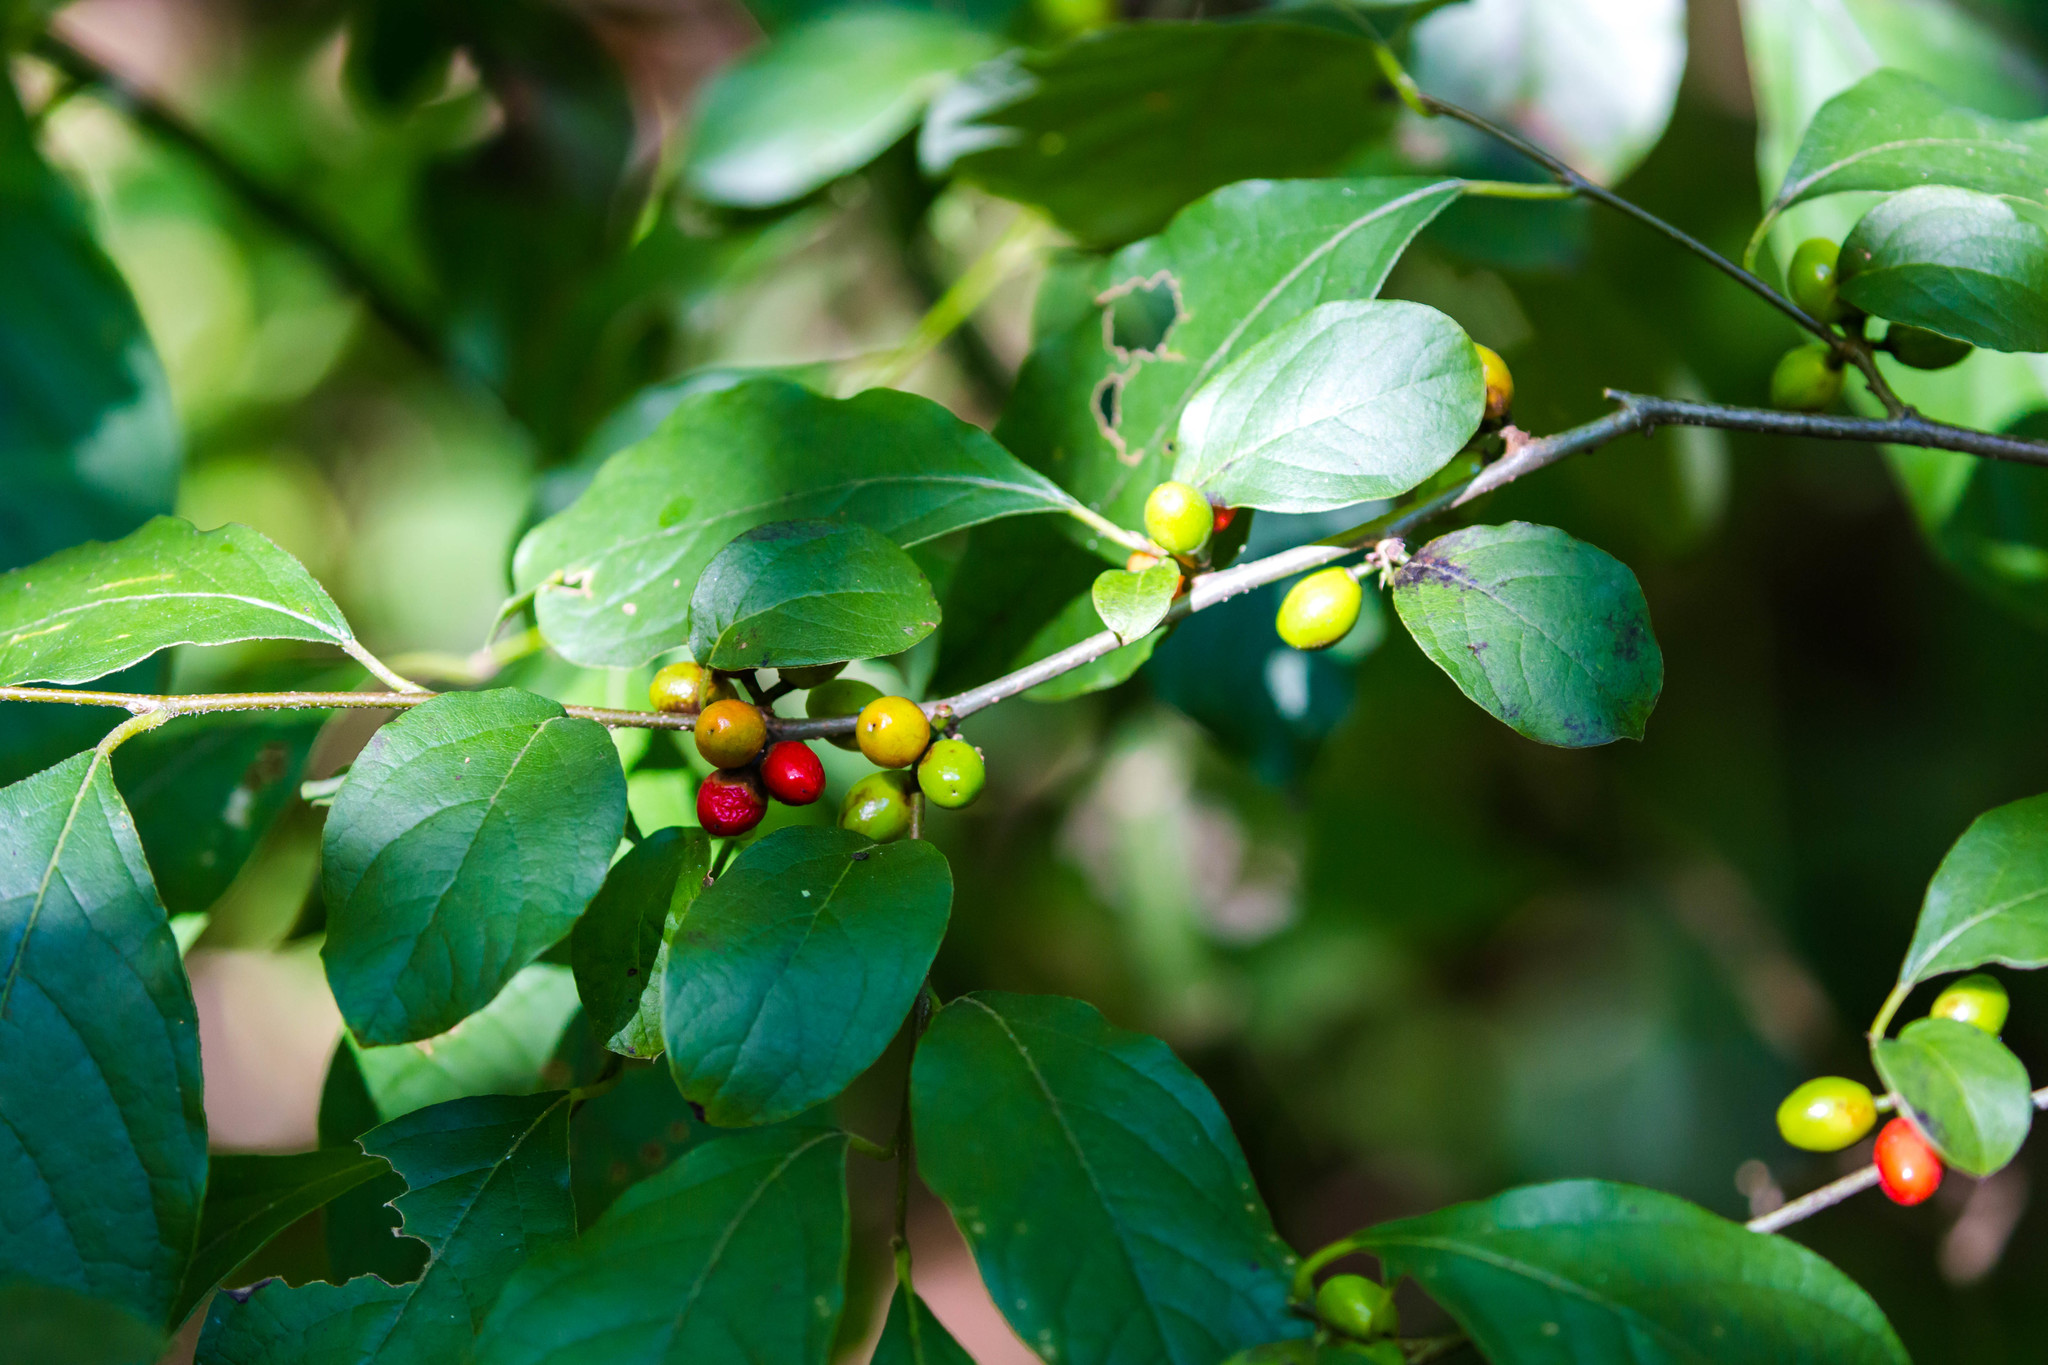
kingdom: Plantae
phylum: Tracheophyta
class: Magnoliopsida
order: Laurales
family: Lauraceae
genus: Lindera
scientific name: Lindera benzoin
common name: Spicebush
